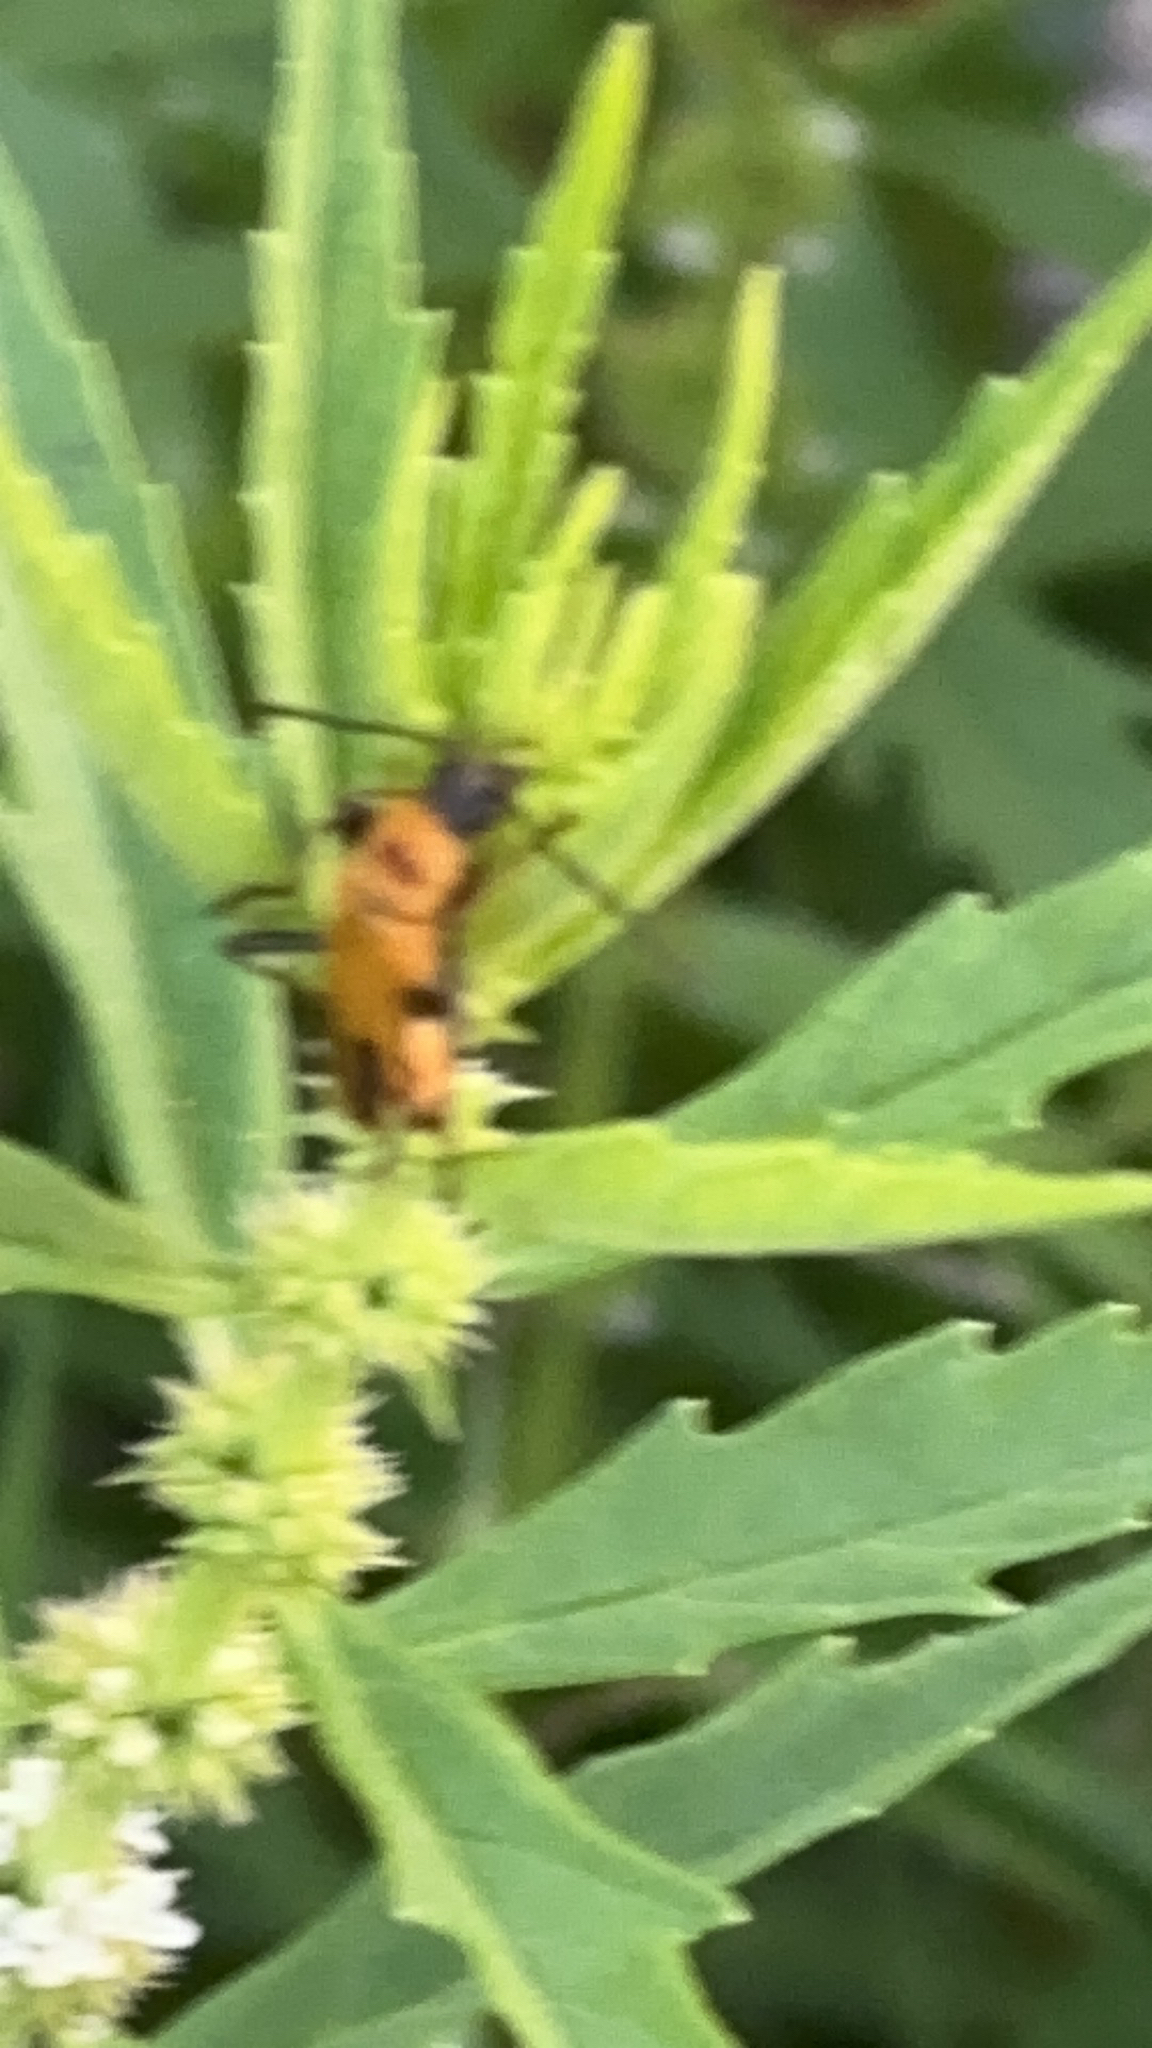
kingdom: Animalia
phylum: Arthropoda
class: Insecta
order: Coleoptera
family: Cantharidae
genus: Chauliognathus
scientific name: Chauliognathus pensylvanicus
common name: Goldenrod soldier beetle
